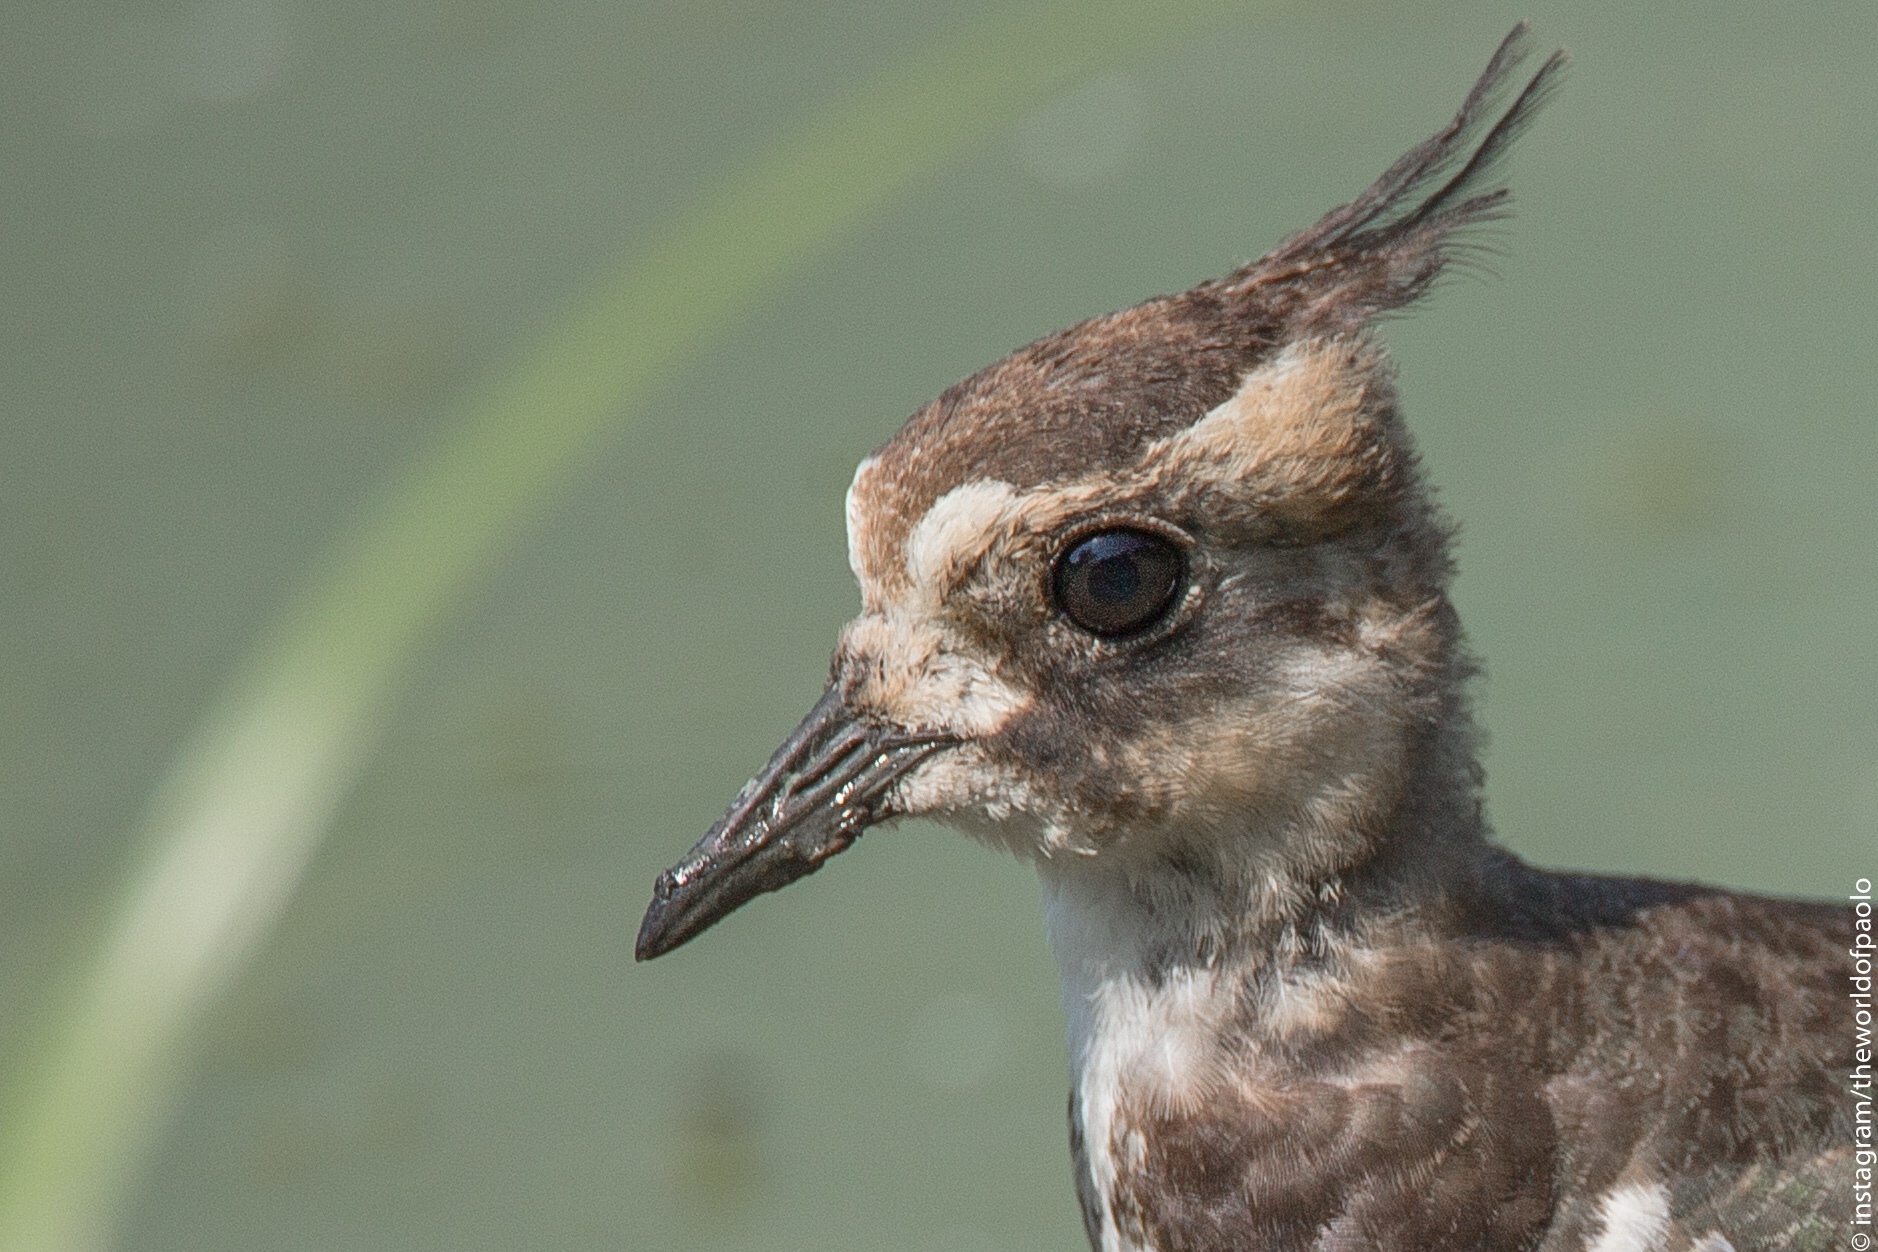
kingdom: Animalia
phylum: Chordata
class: Aves
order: Charadriiformes
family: Charadriidae
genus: Vanellus
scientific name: Vanellus vanellus
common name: Northern lapwing
